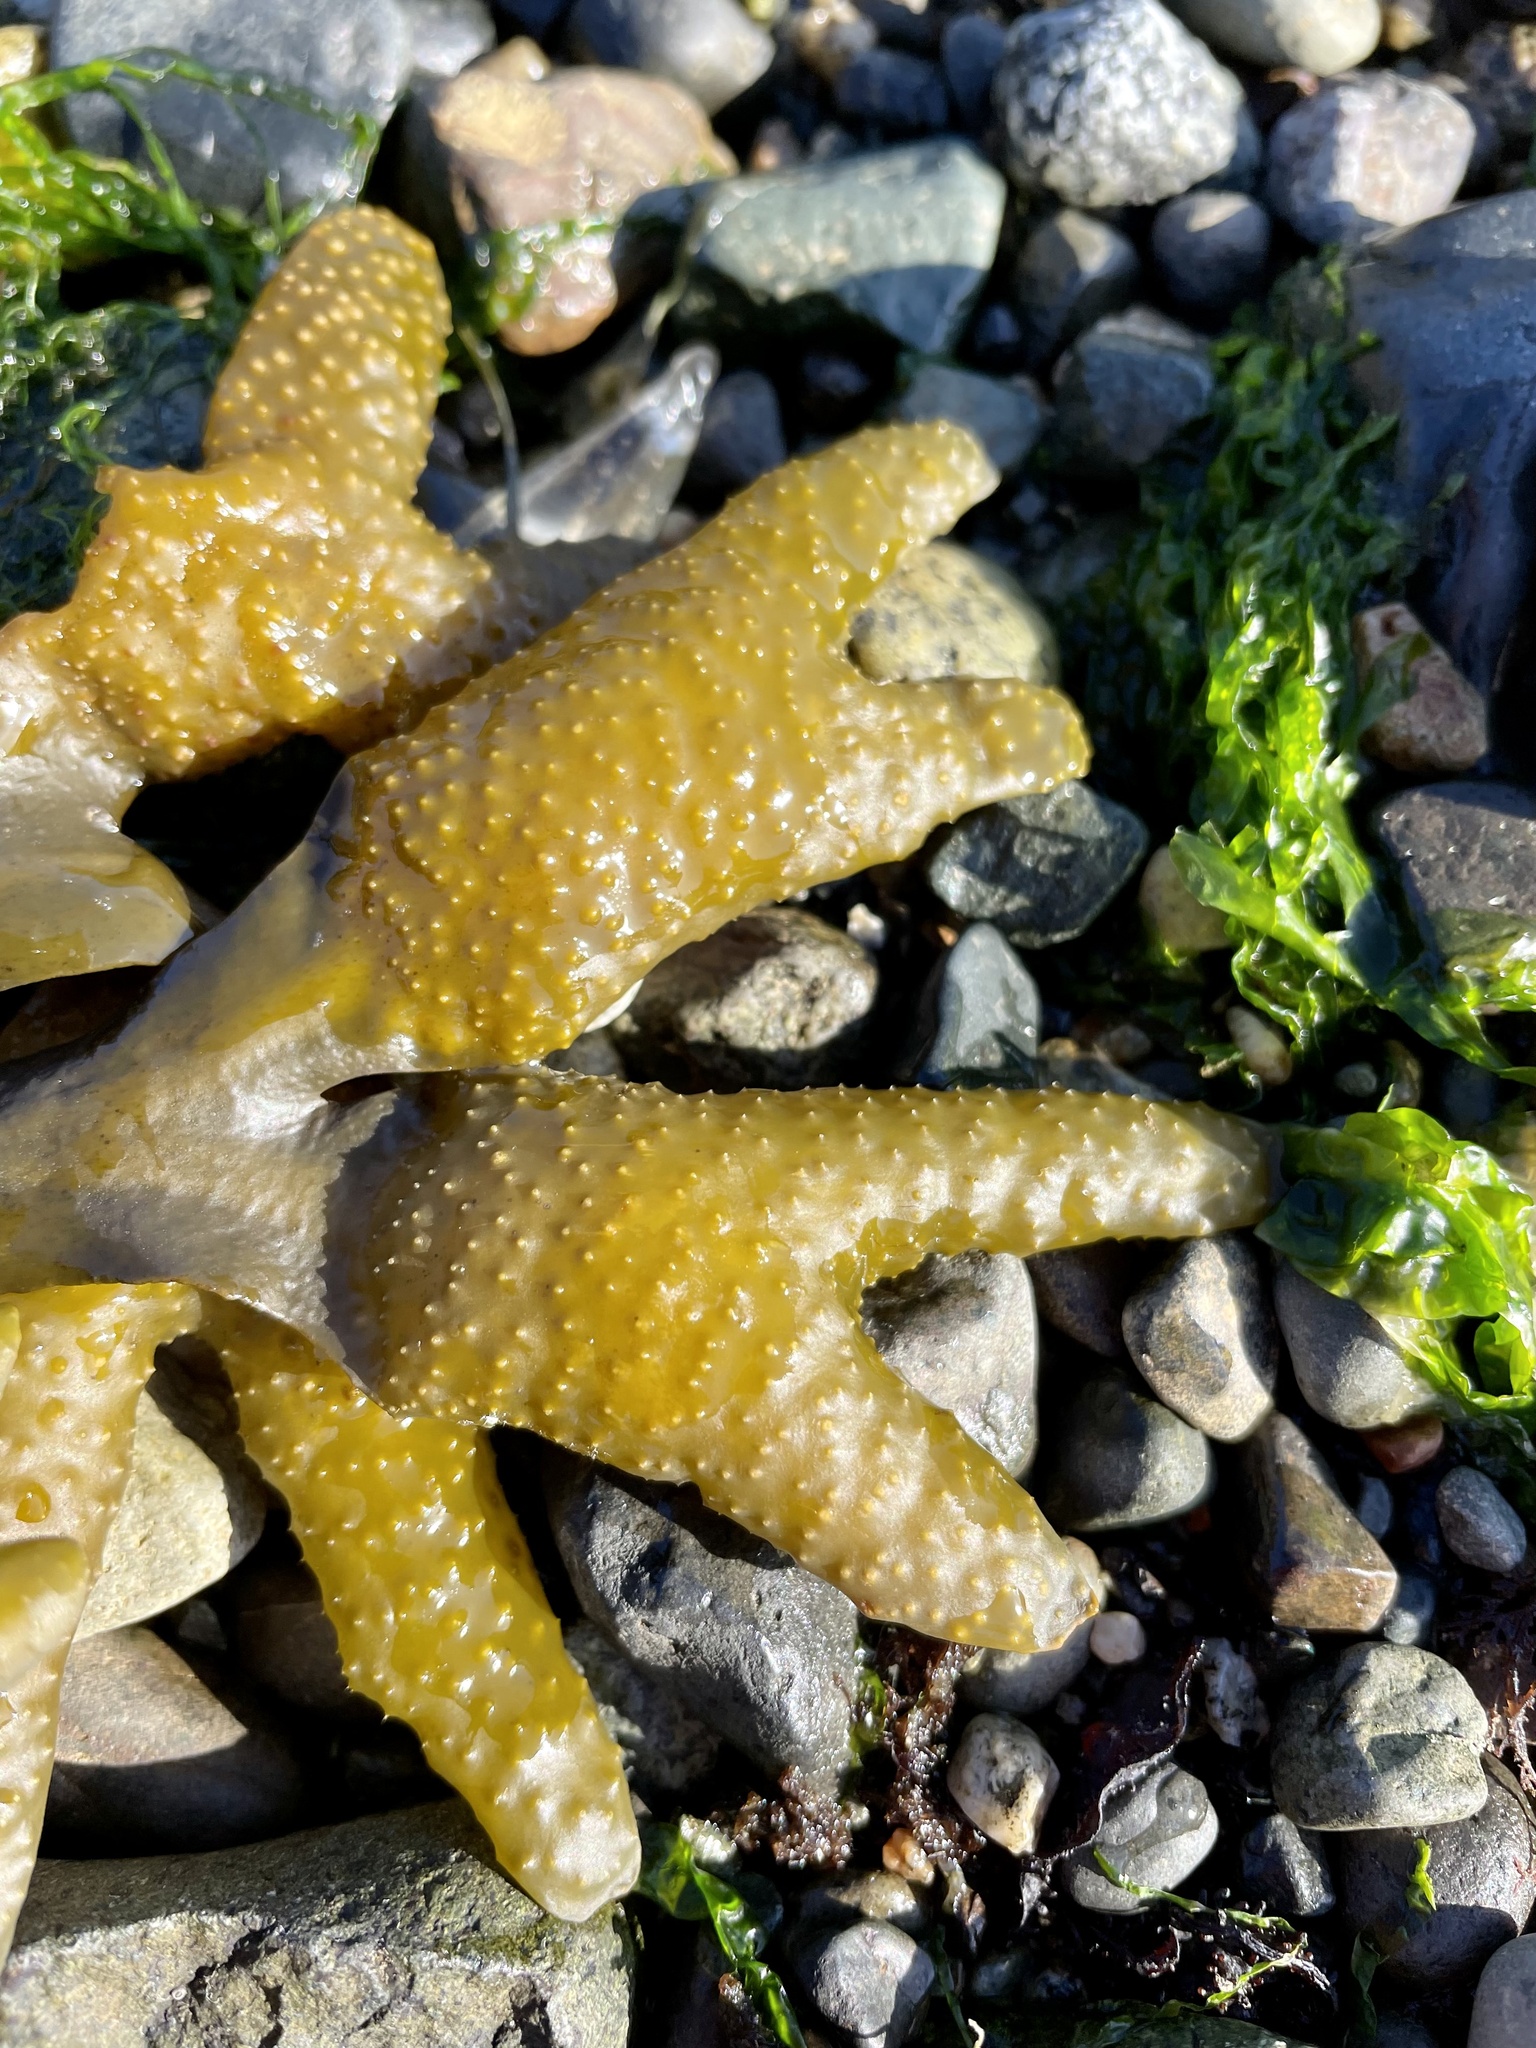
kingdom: Chromista
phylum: Ochrophyta
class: Phaeophyceae
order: Fucales
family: Fucaceae
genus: Fucus
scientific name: Fucus distichus
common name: Rockweed
